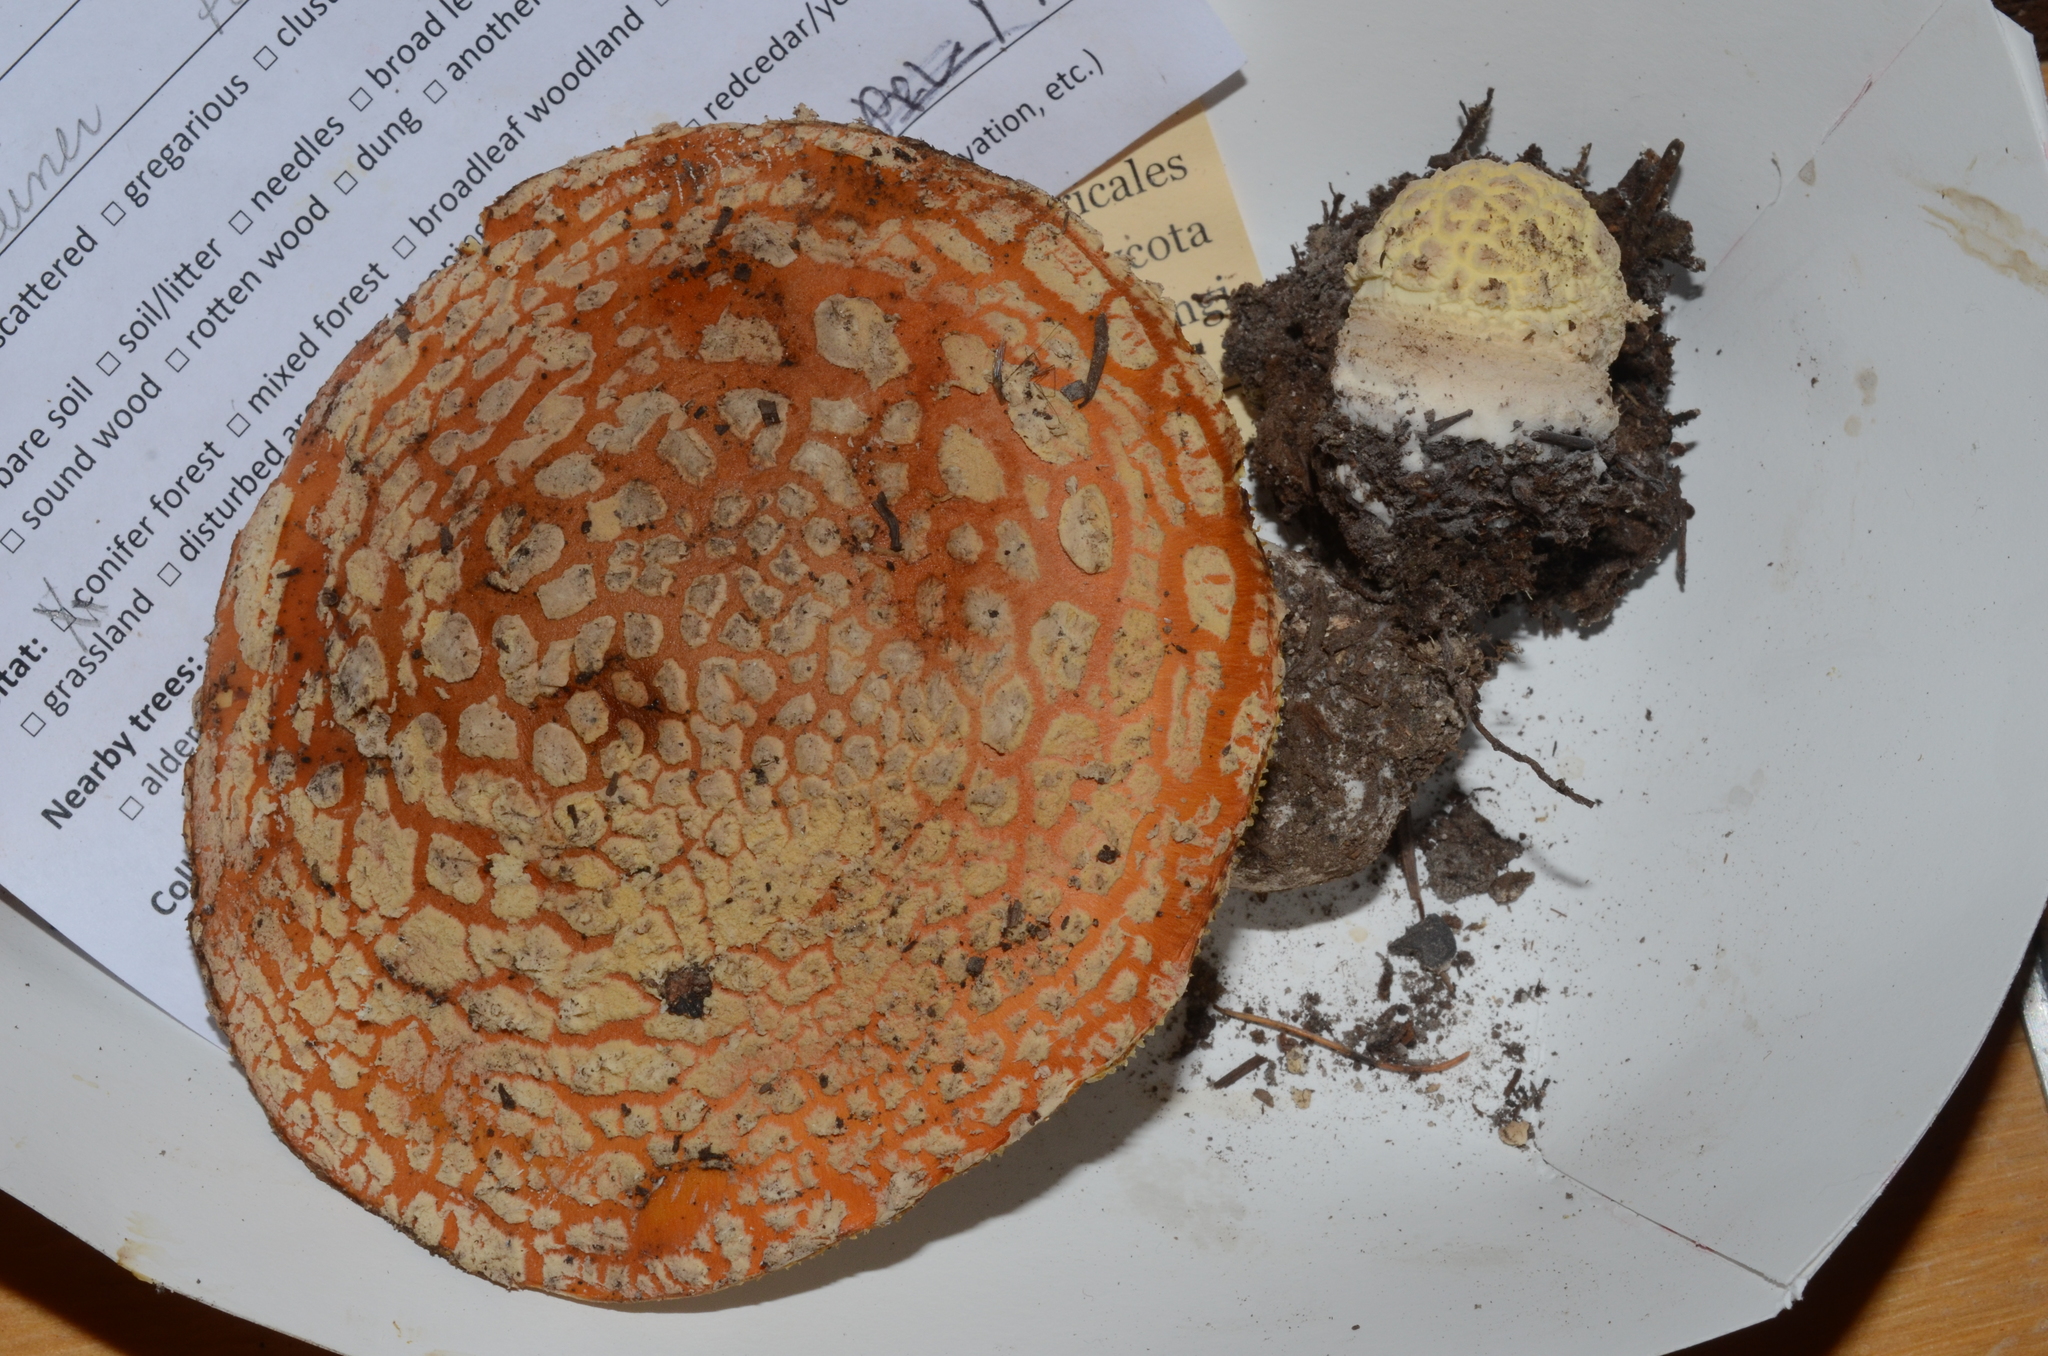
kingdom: Fungi
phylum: Basidiomycota
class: Agaricomycetes
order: Agaricales
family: Amanitaceae
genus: Amanita
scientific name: Amanita muscaria
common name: Fly agaric
